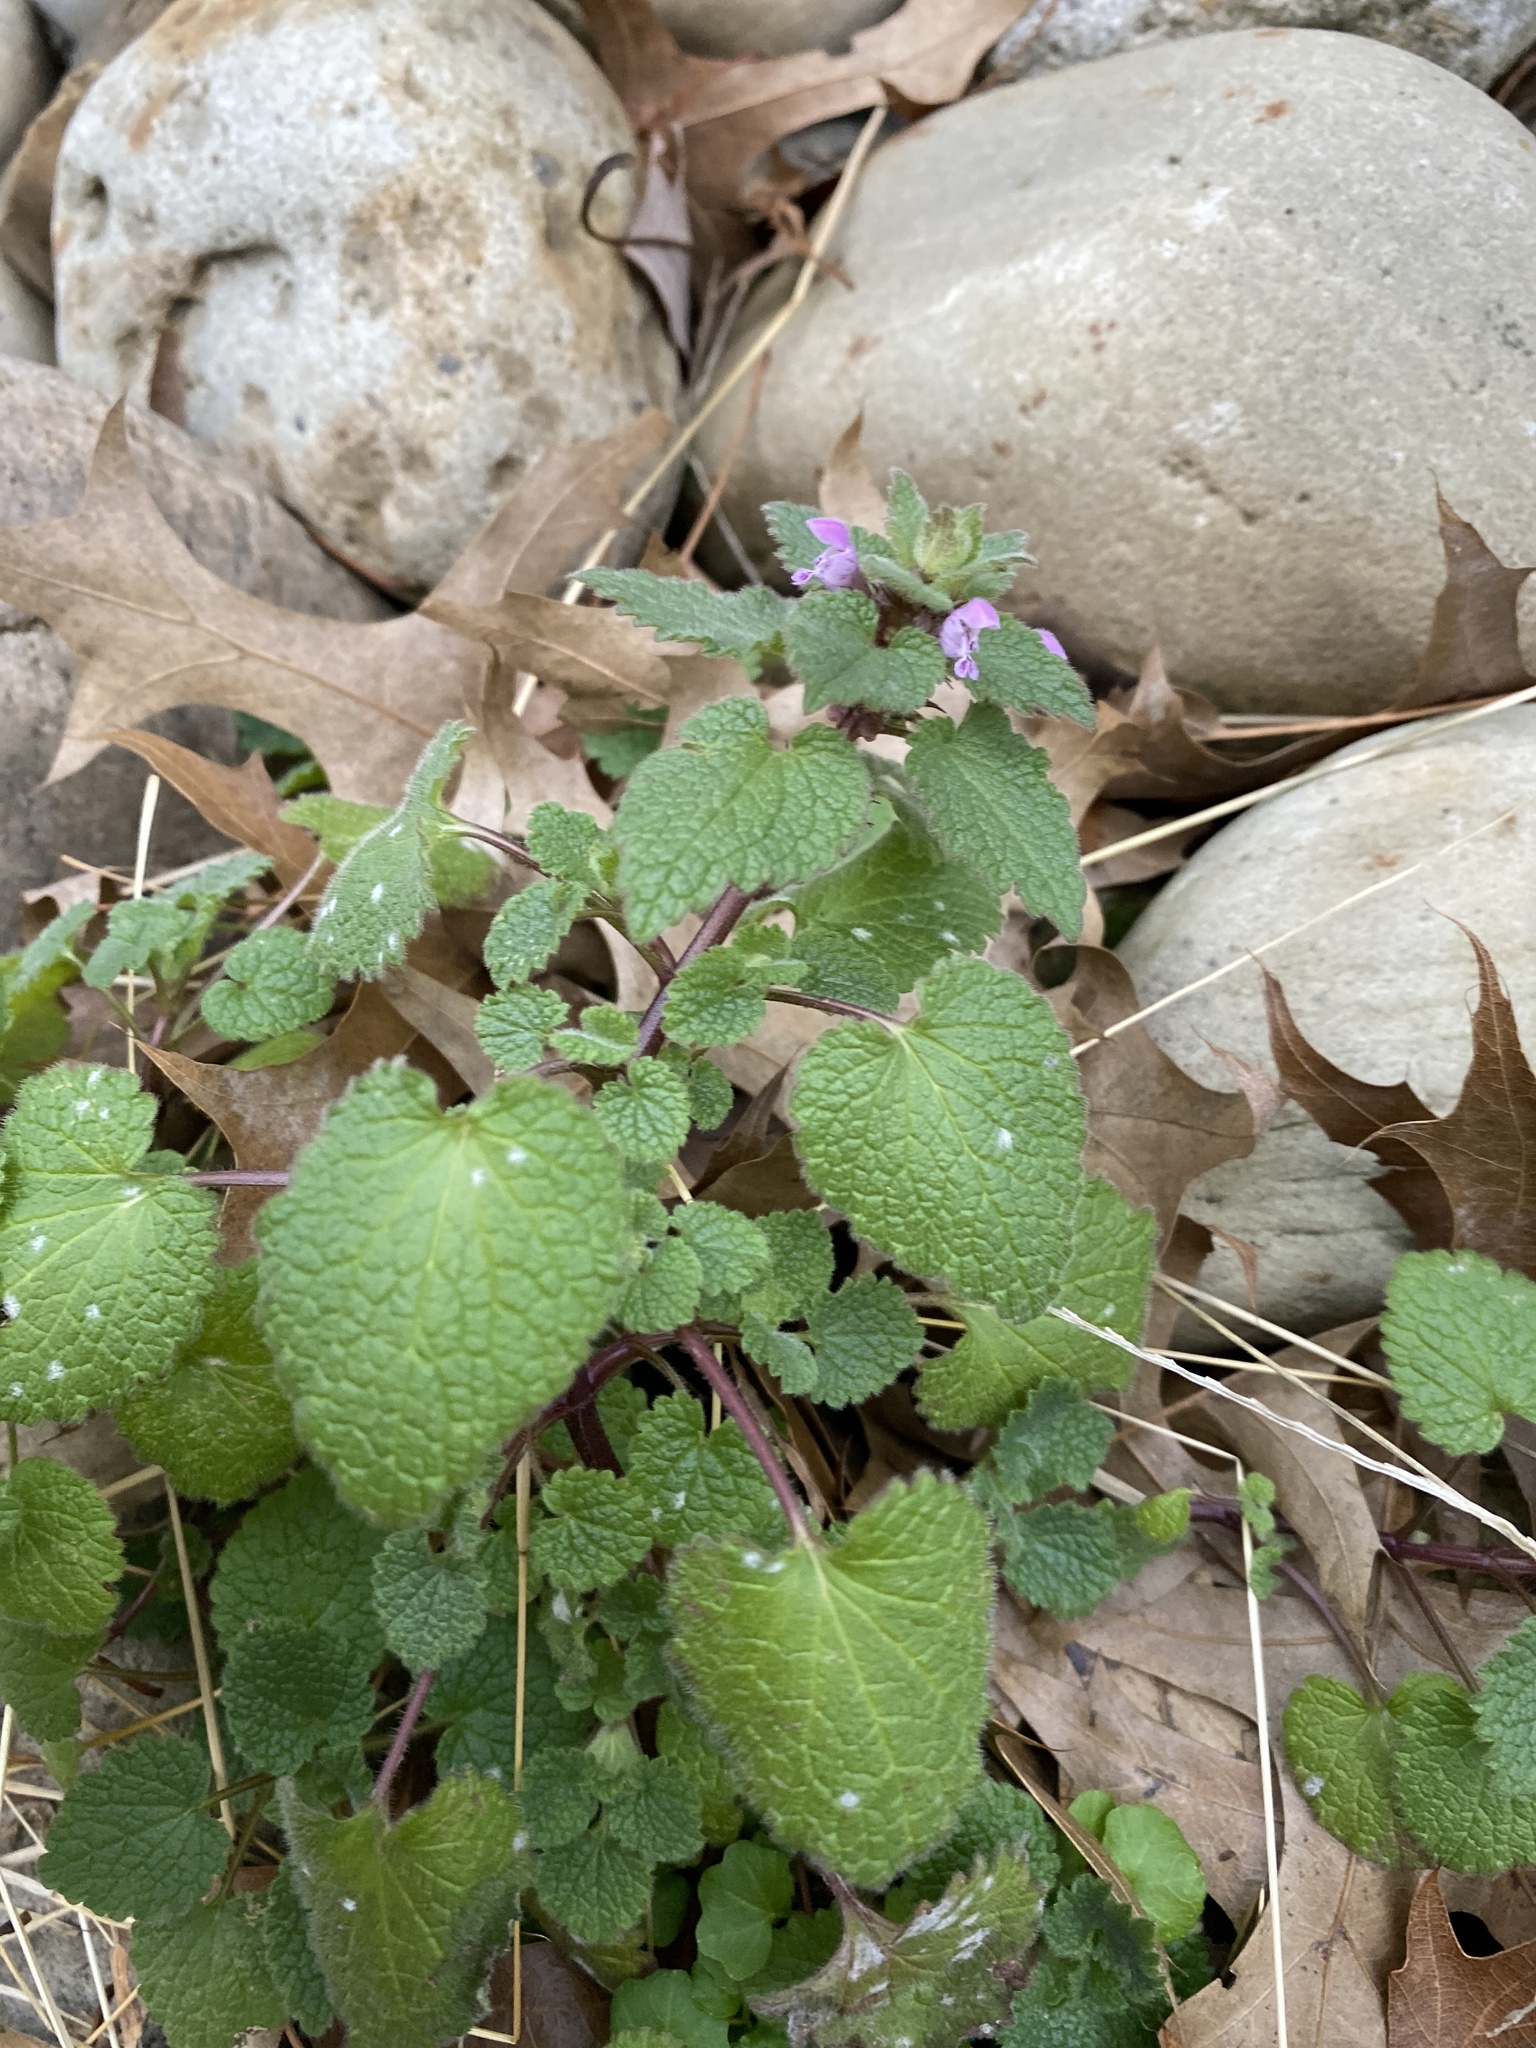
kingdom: Plantae
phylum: Tracheophyta
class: Magnoliopsida
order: Lamiales
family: Lamiaceae
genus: Lamium
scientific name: Lamium purpureum
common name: Red dead-nettle
